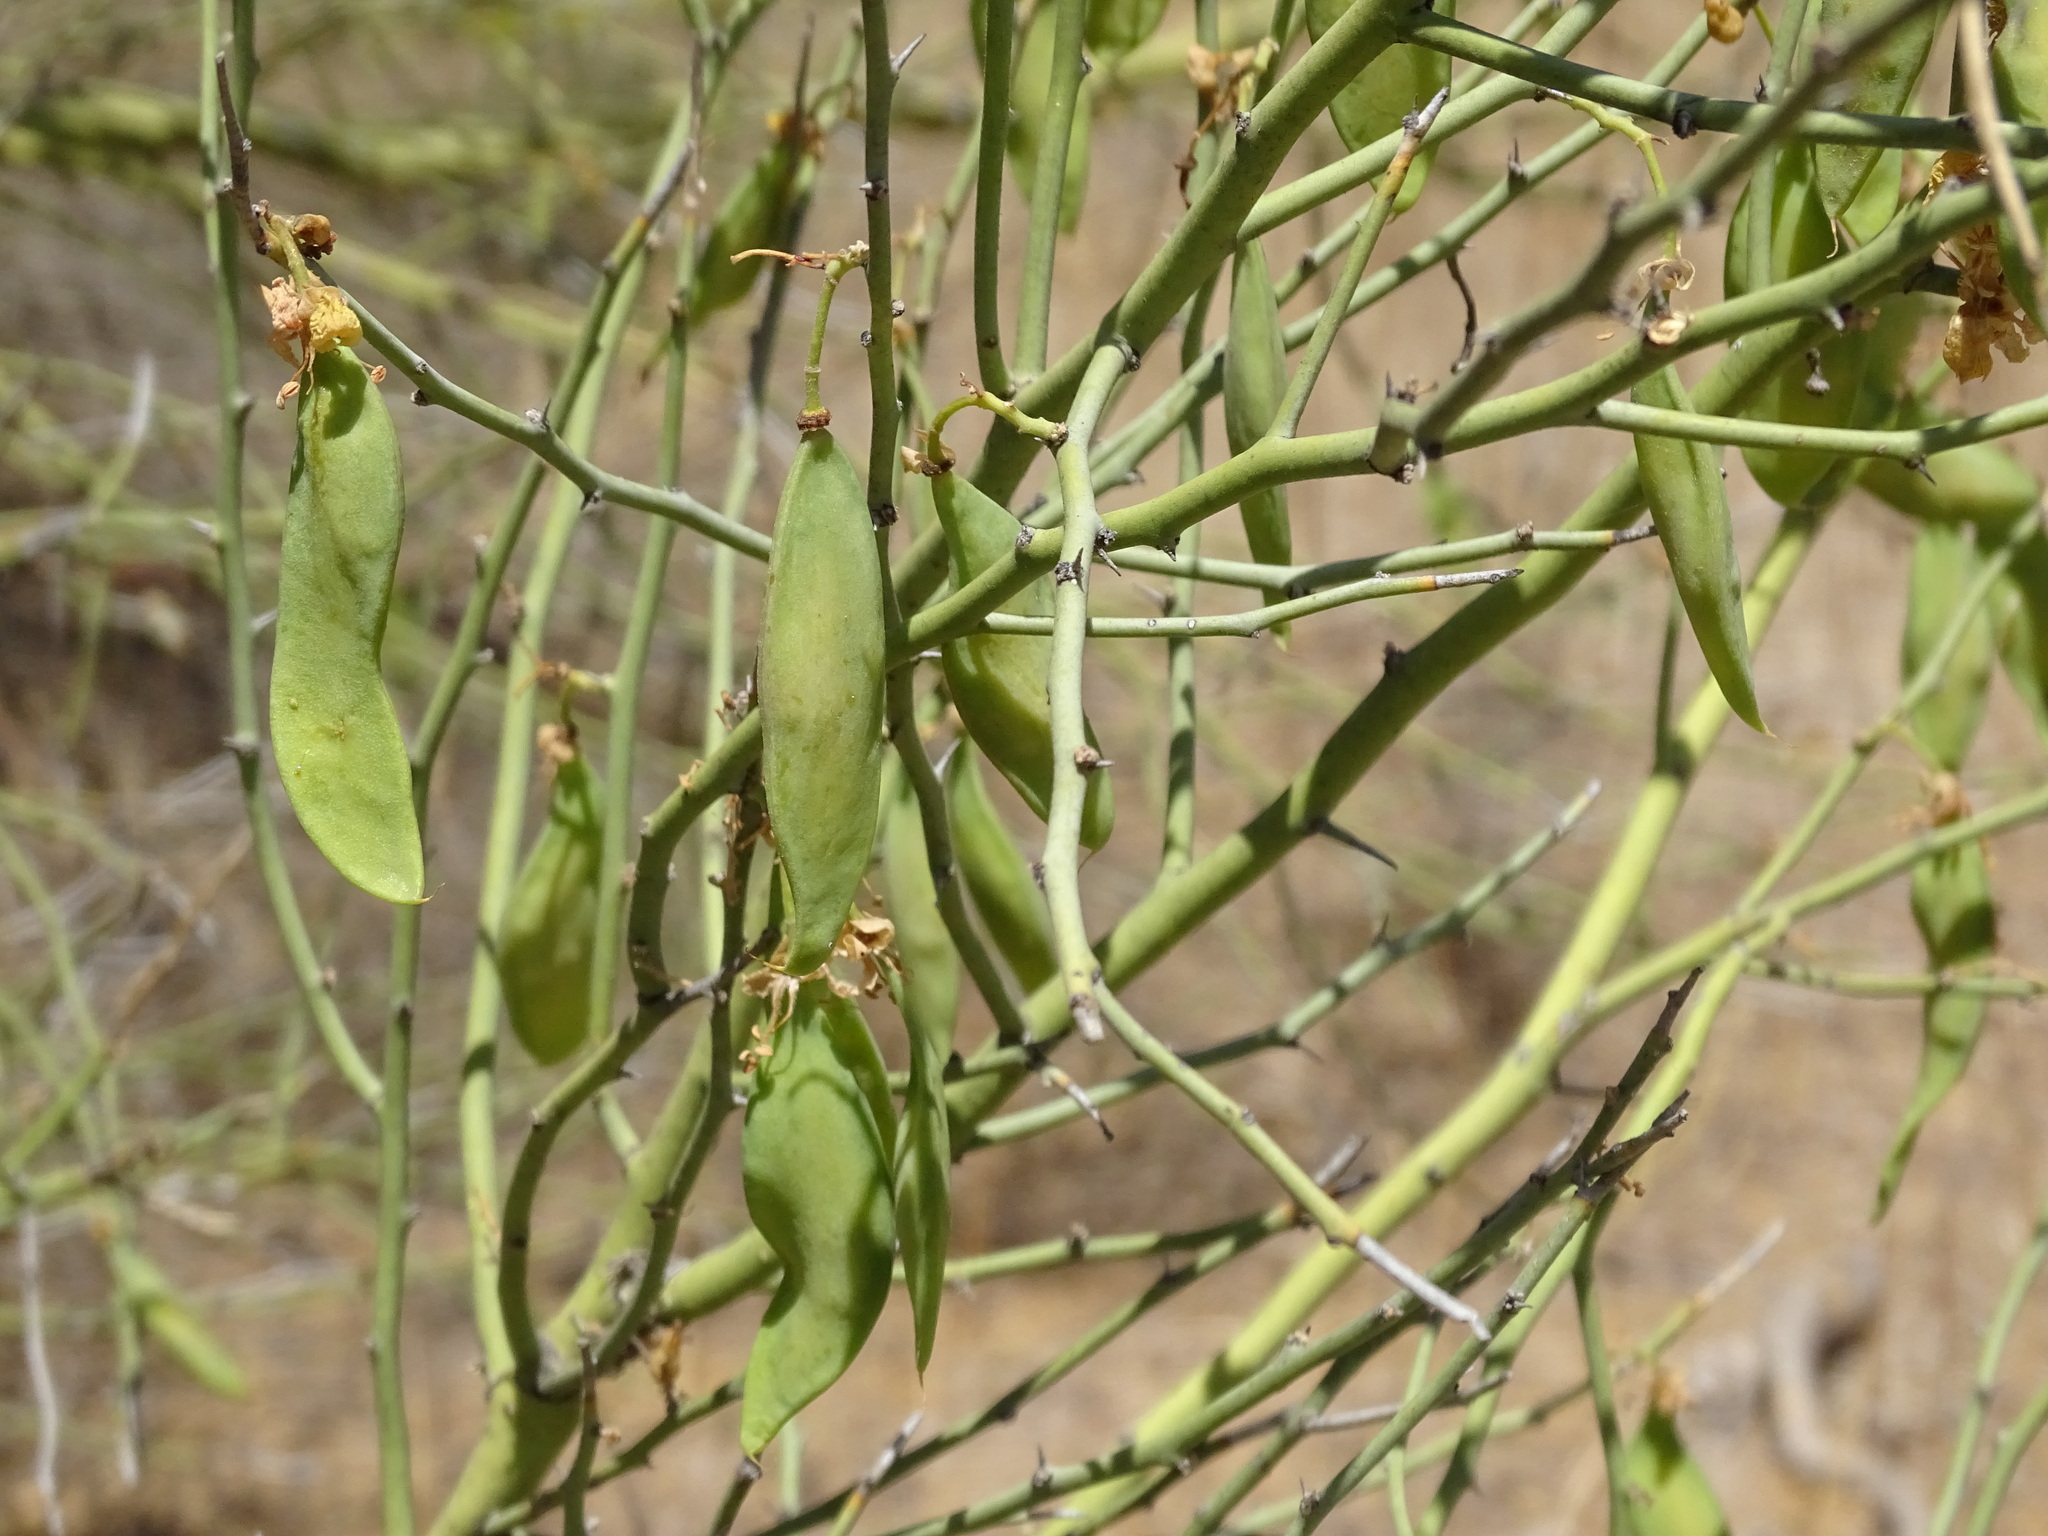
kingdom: Plantae
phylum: Tracheophyta
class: Magnoliopsida
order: Fabales
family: Fabaceae
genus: Parkinsonia
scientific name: Parkinsonia florida
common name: Blue paloverde
